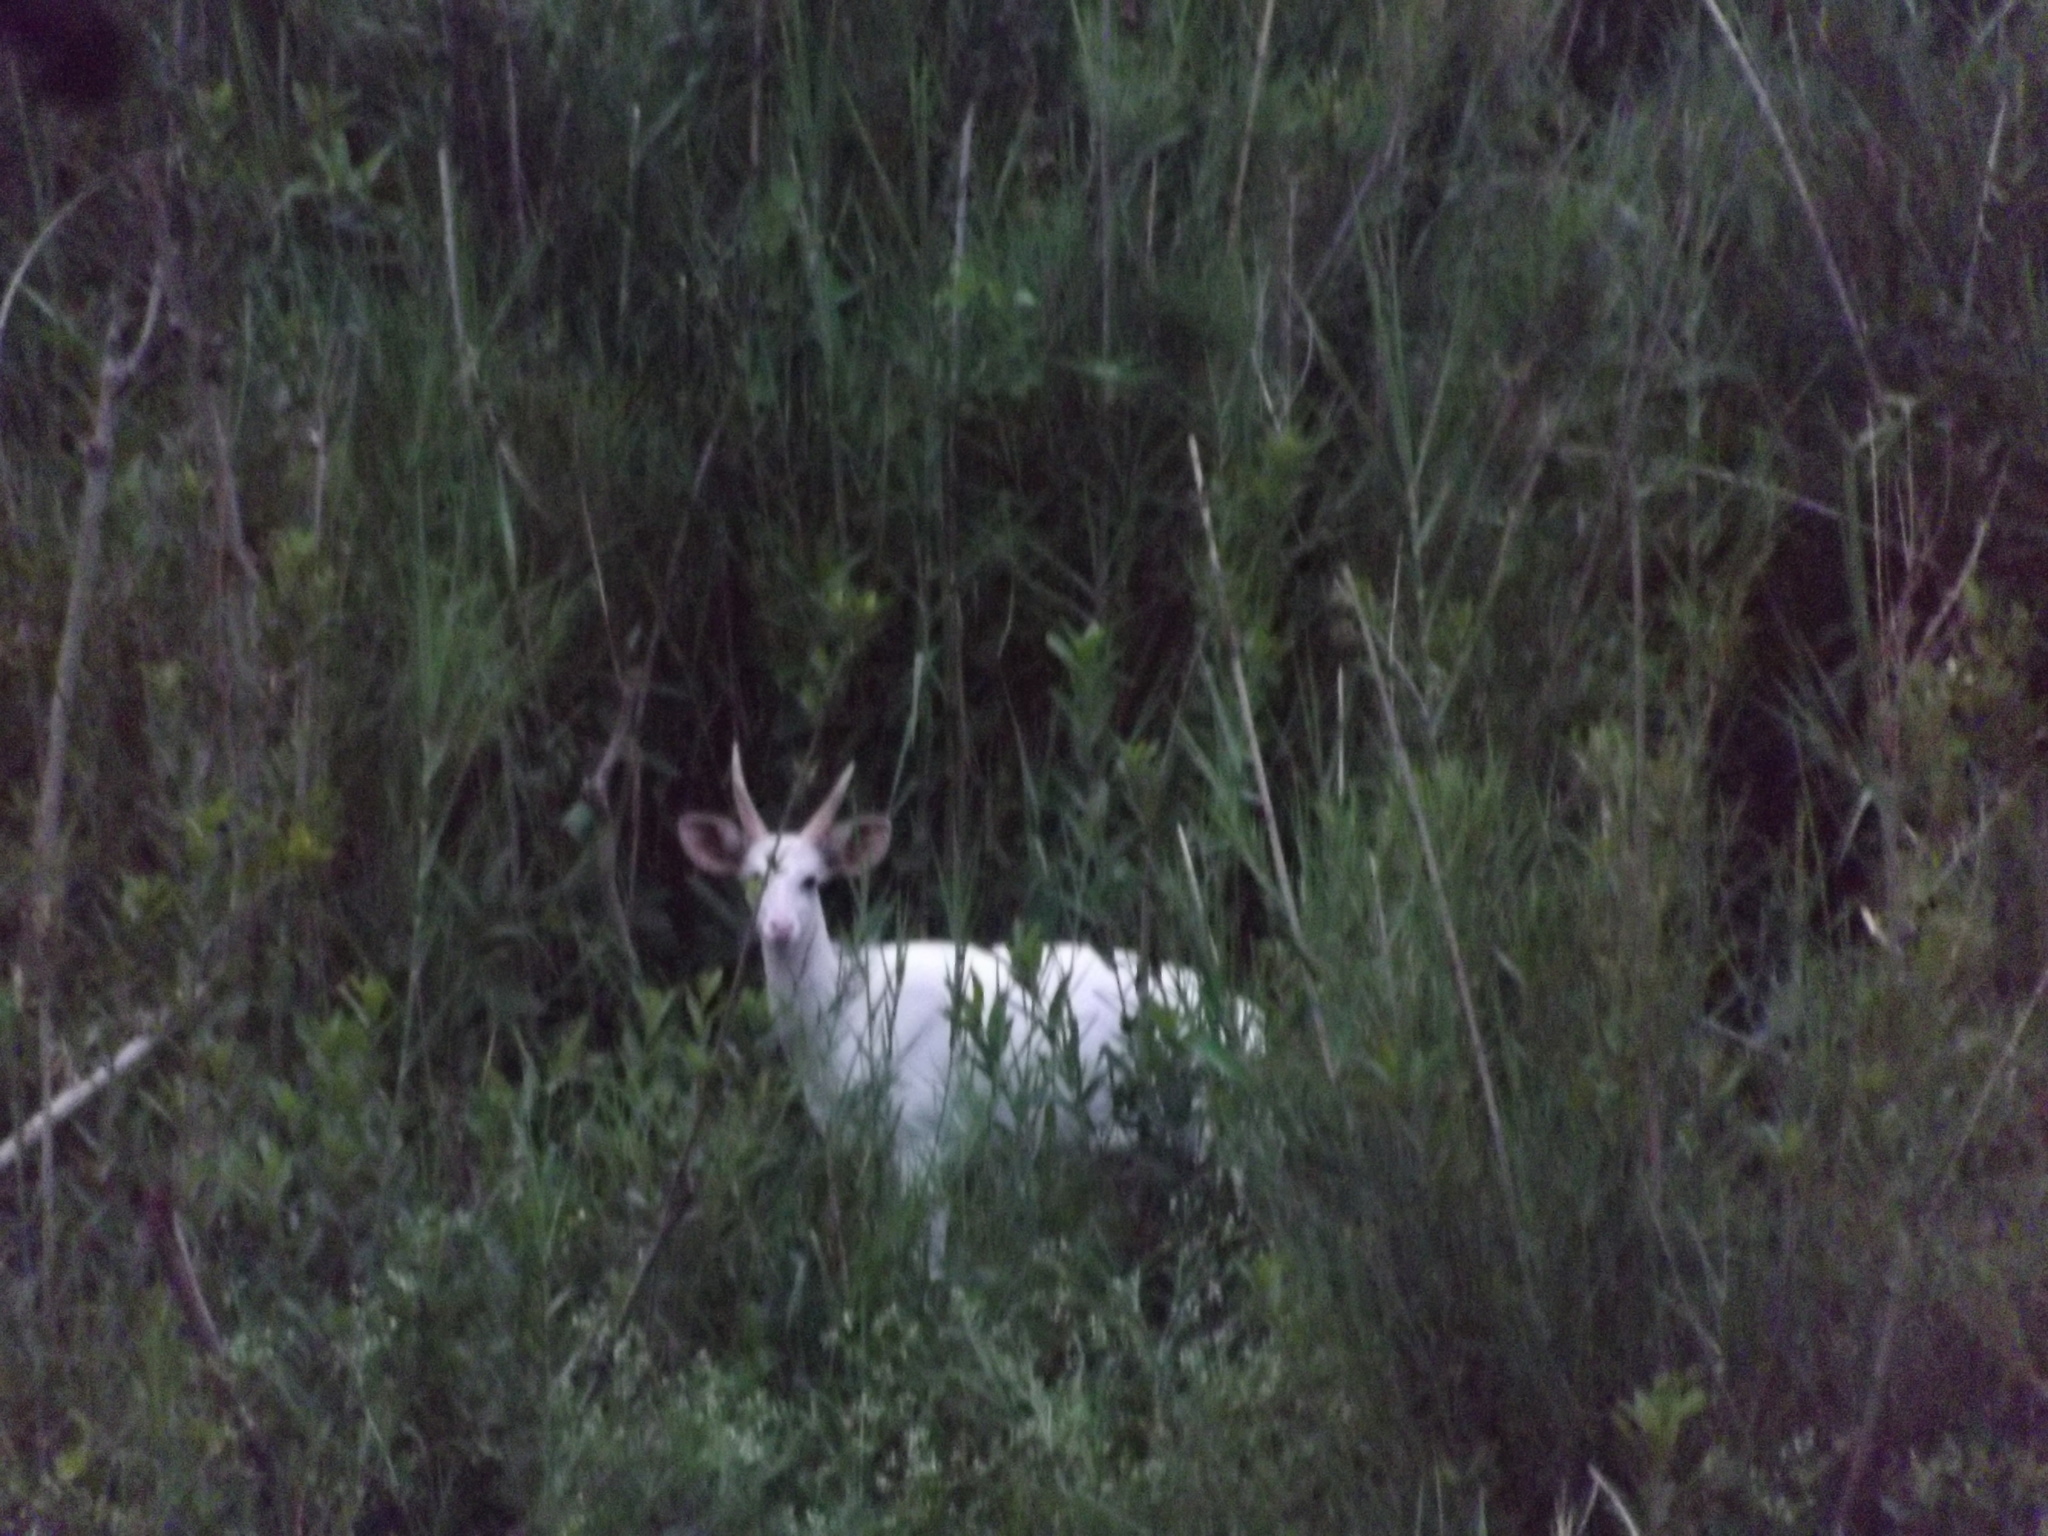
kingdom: Animalia
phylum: Chordata
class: Mammalia
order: Artiodactyla
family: Bovidae
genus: Tragelaphus
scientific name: Tragelaphus scriptus
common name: Bushbuck
